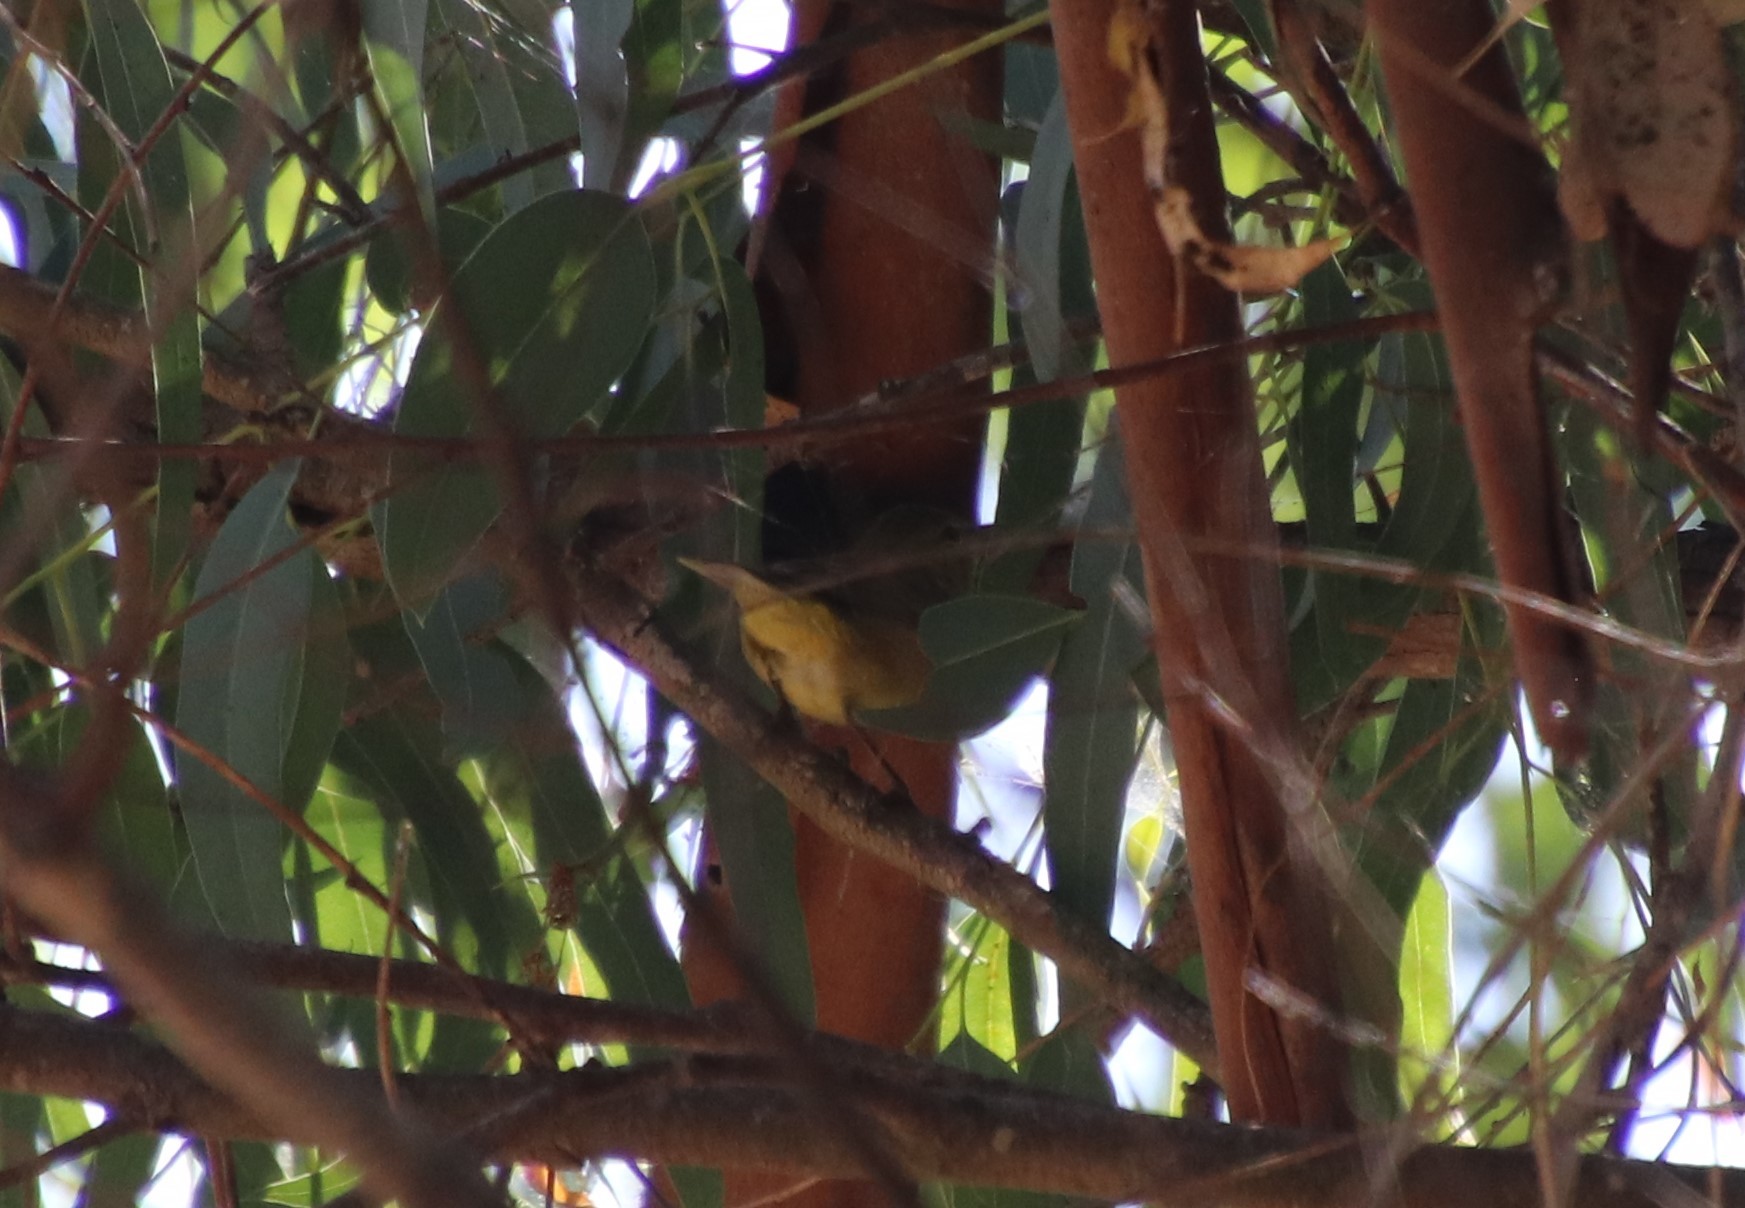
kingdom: Animalia
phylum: Chordata
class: Aves
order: Passeriformes
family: Parulidae
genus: Leiothlypis
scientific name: Leiothlypis celata
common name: Orange-crowned warbler
